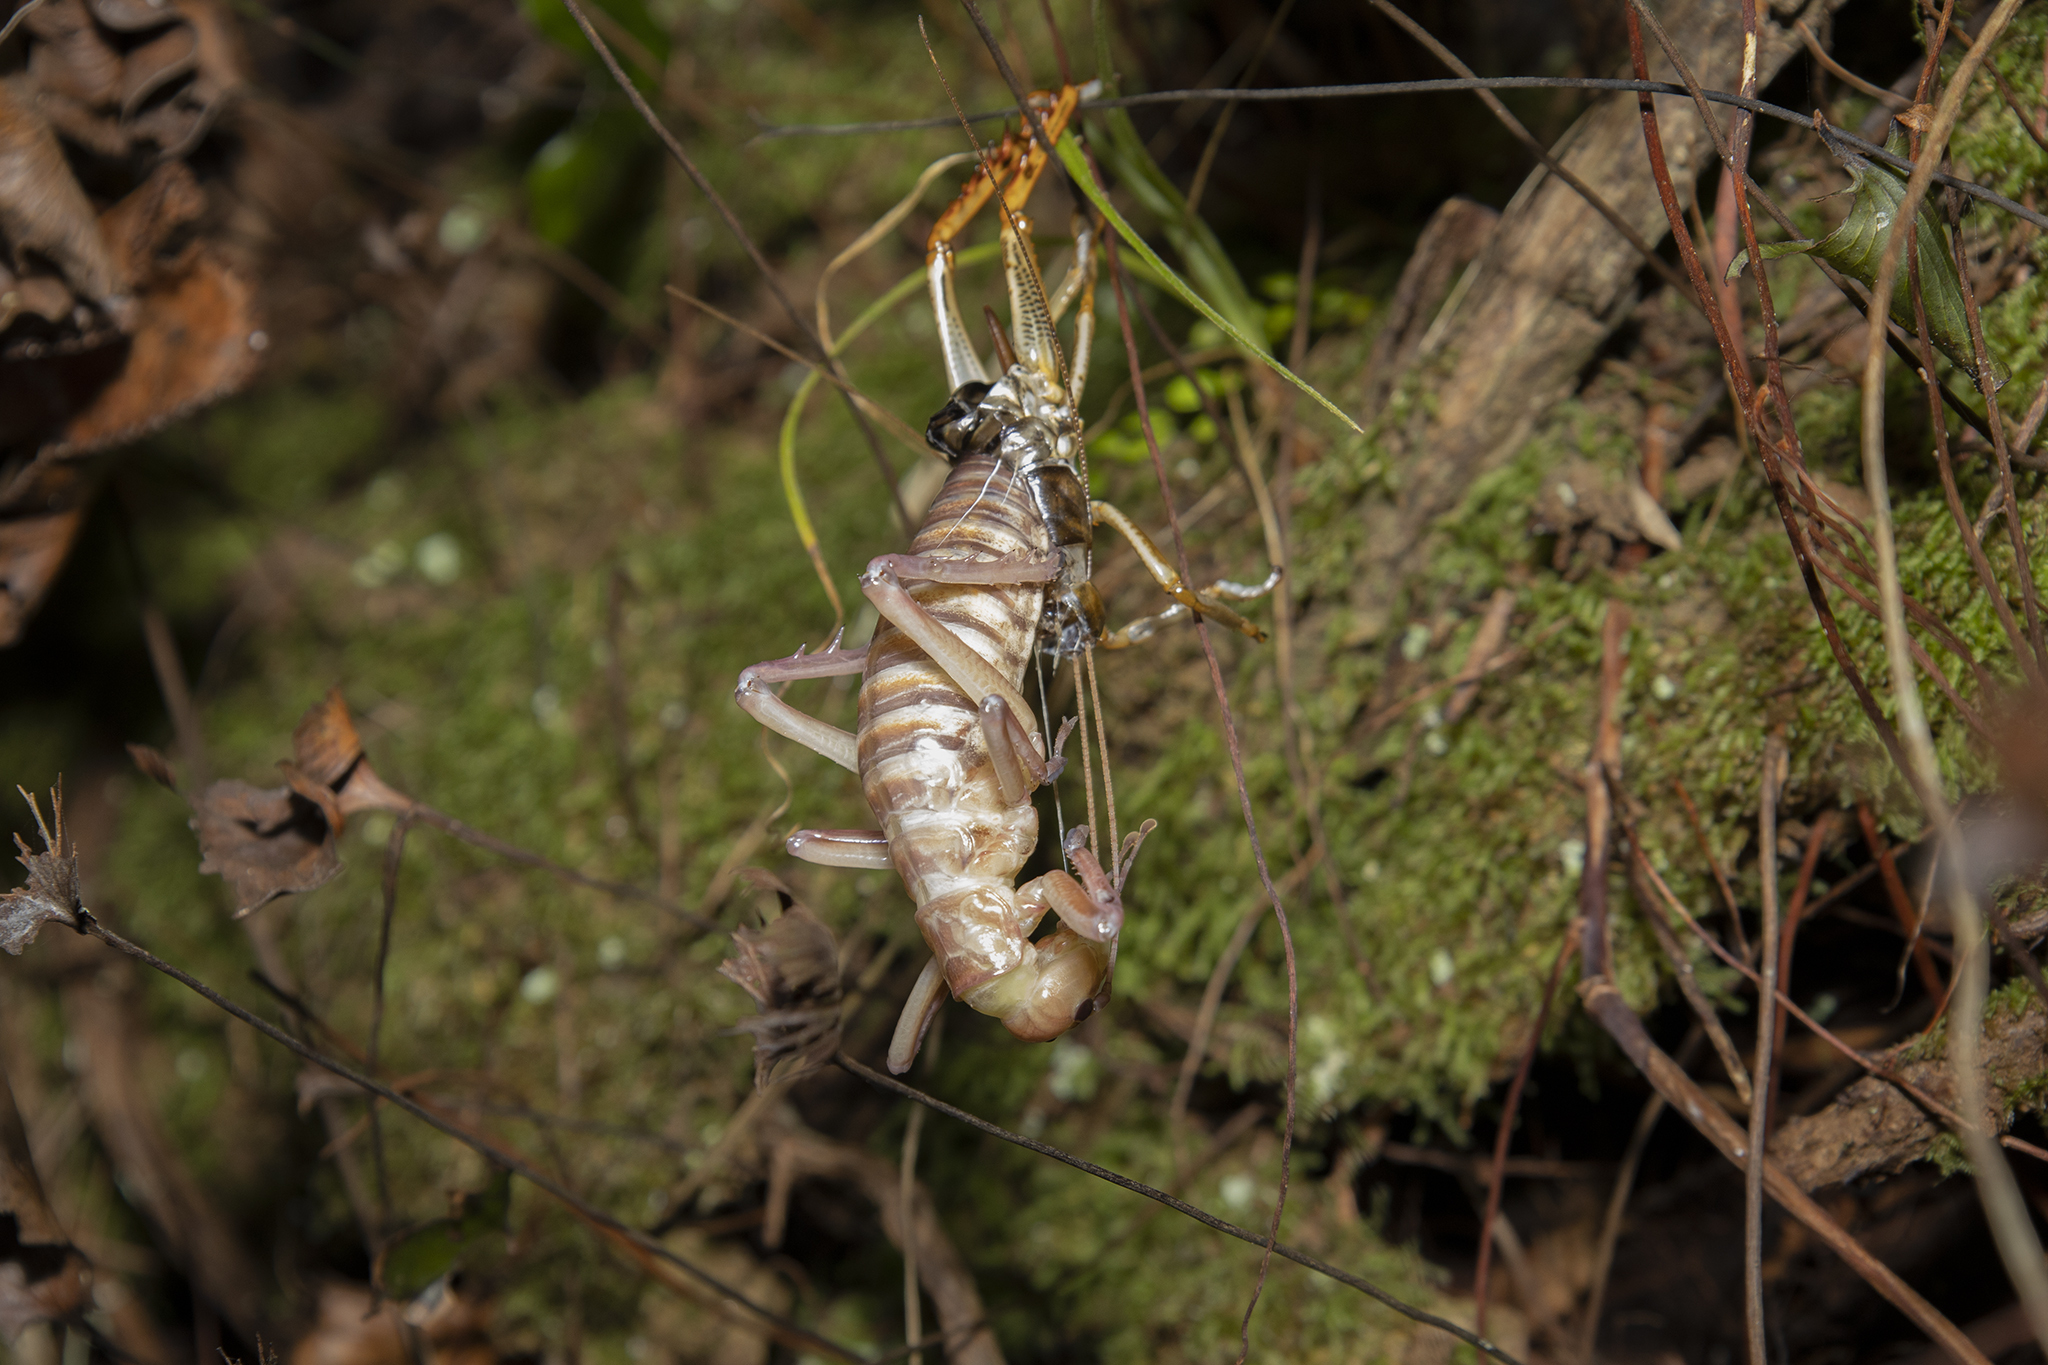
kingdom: Animalia
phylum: Arthropoda
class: Insecta
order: Orthoptera
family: Anostostomatidae
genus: Hemideina
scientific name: Hemideina crassidens
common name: Wellington tree weta
